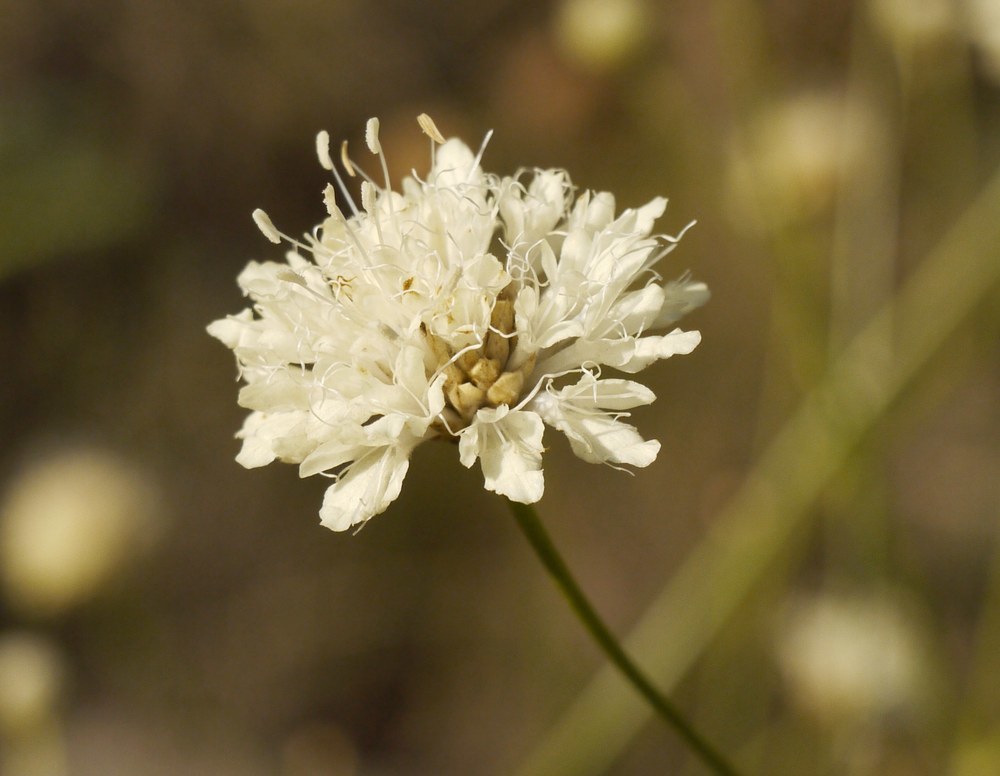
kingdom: Plantae
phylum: Tracheophyta
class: Magnoliopsida
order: Dipsacales
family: Caprifoliaceae
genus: Cephalaria
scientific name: Cephalaria uralensis
